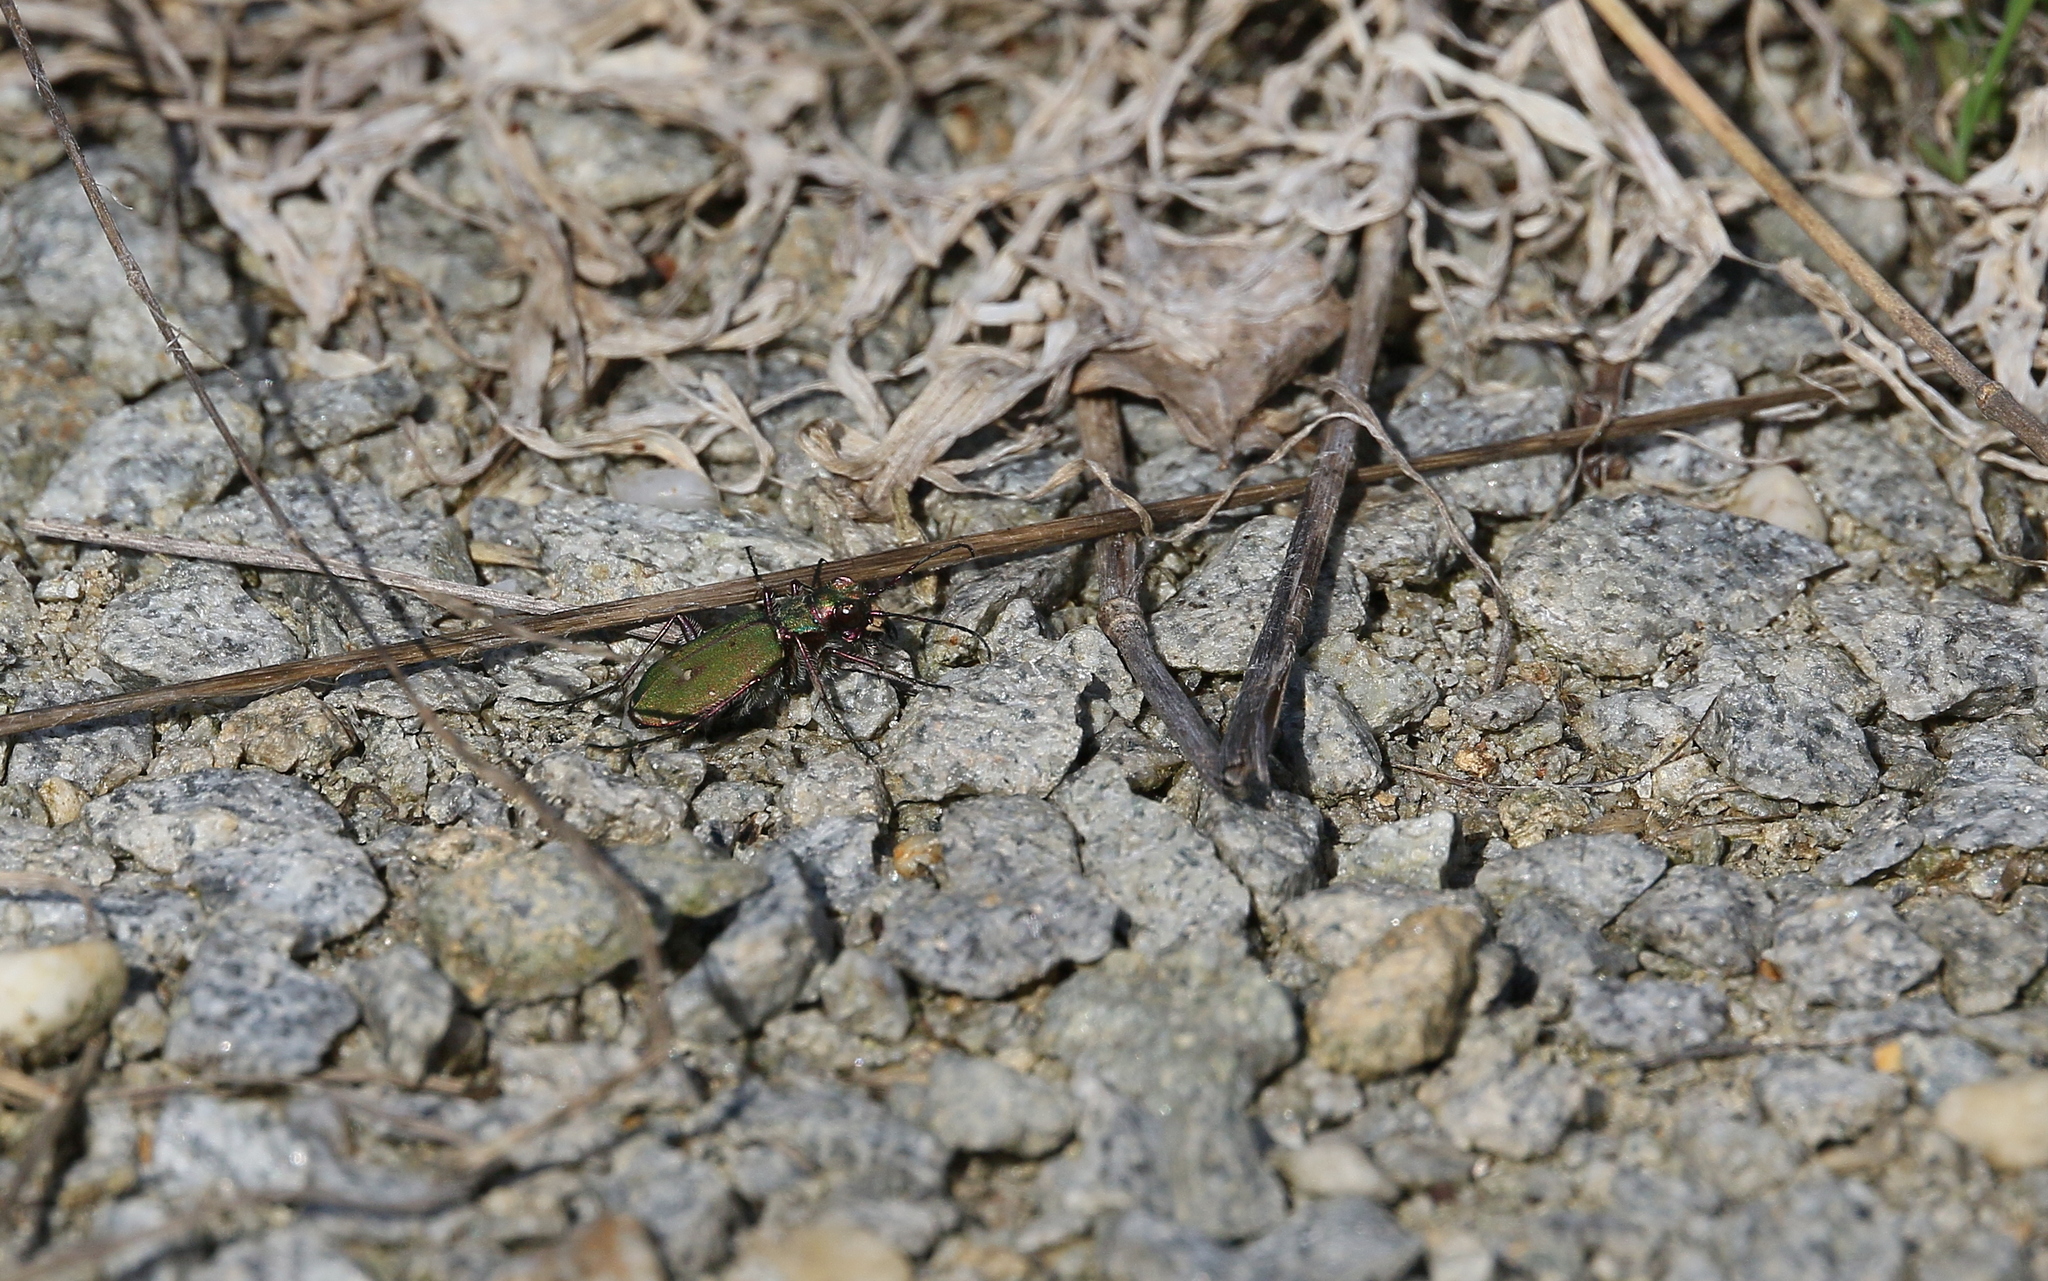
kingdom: Animalia
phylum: Arthropoda
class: Insecta
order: Coleoptera
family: Carabidae
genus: Cicindela
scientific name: Cicindela campestris
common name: Common tiger beetle
